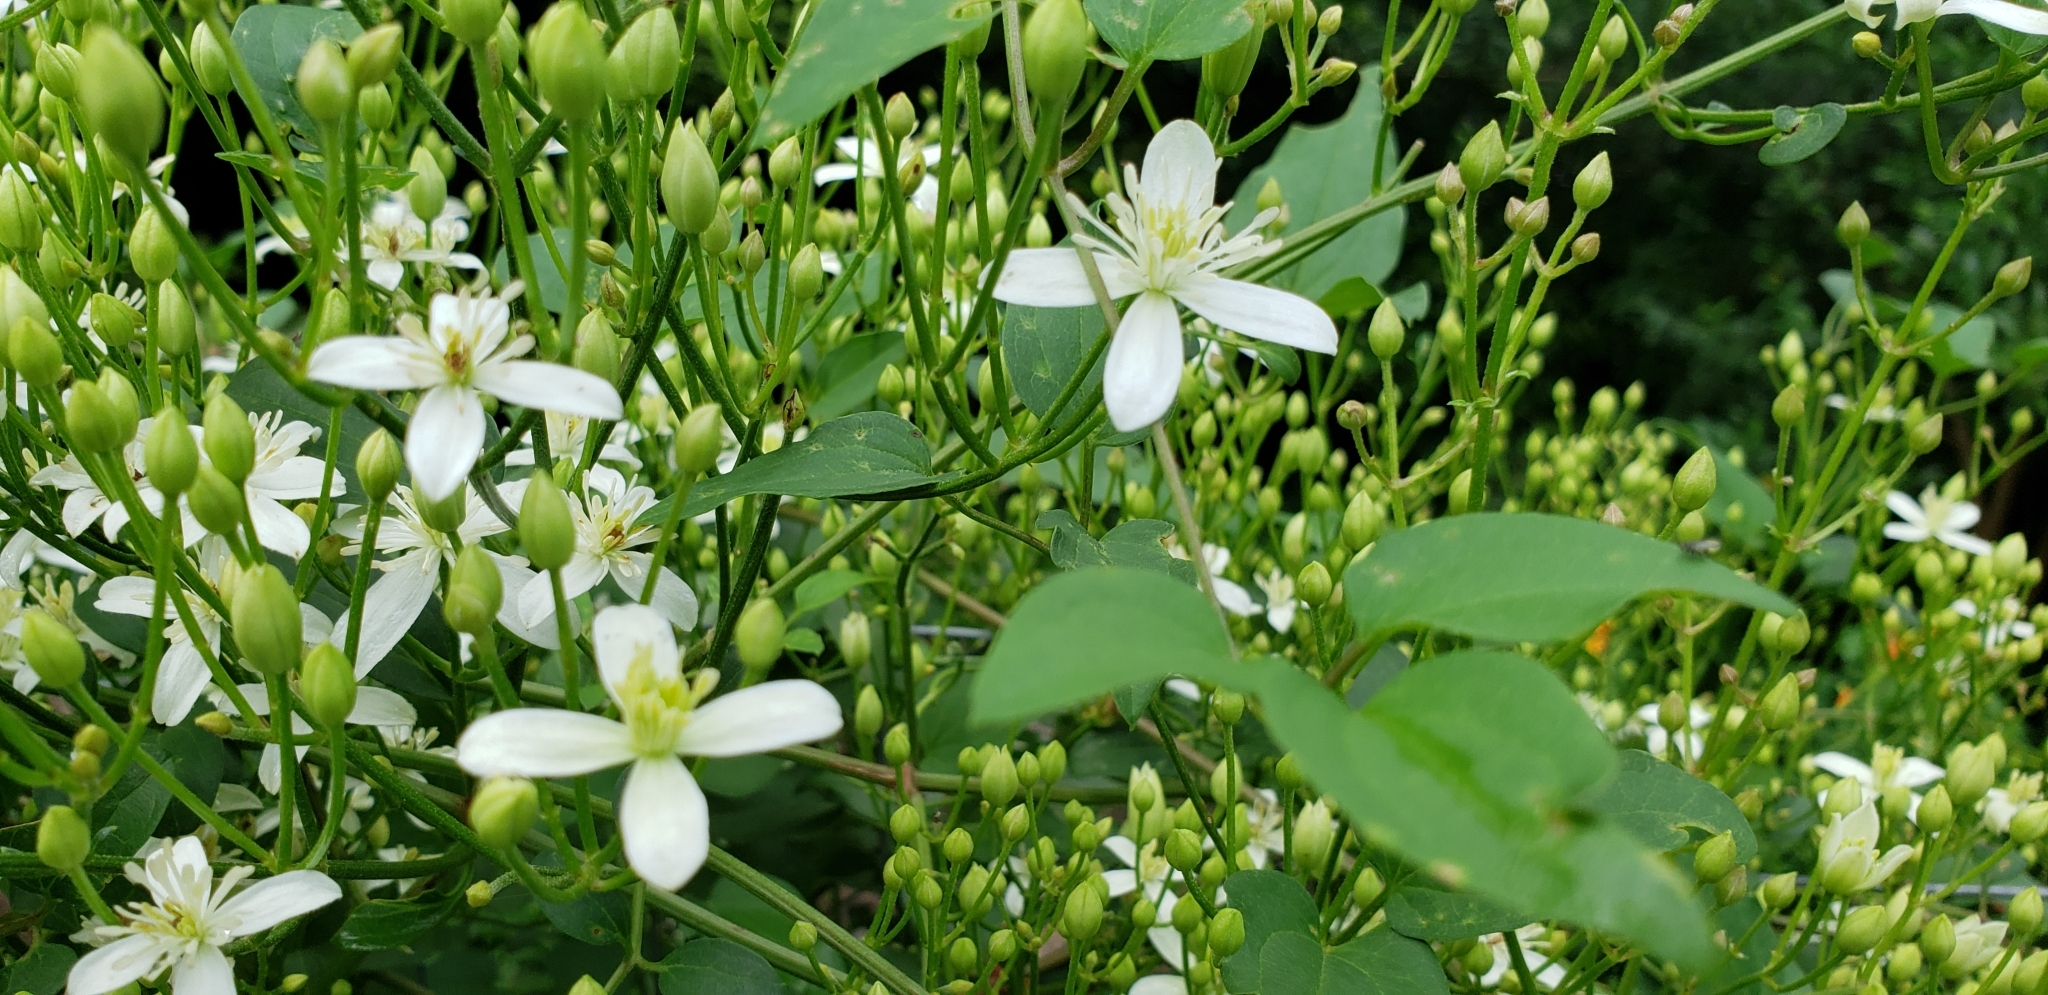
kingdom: Plantae
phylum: Tracheophyta
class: Magnoliopsida
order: Ranunculales
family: Ranunculaceae
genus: Clematis
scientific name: Clematis terniflora
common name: Sweet autumn clematis
